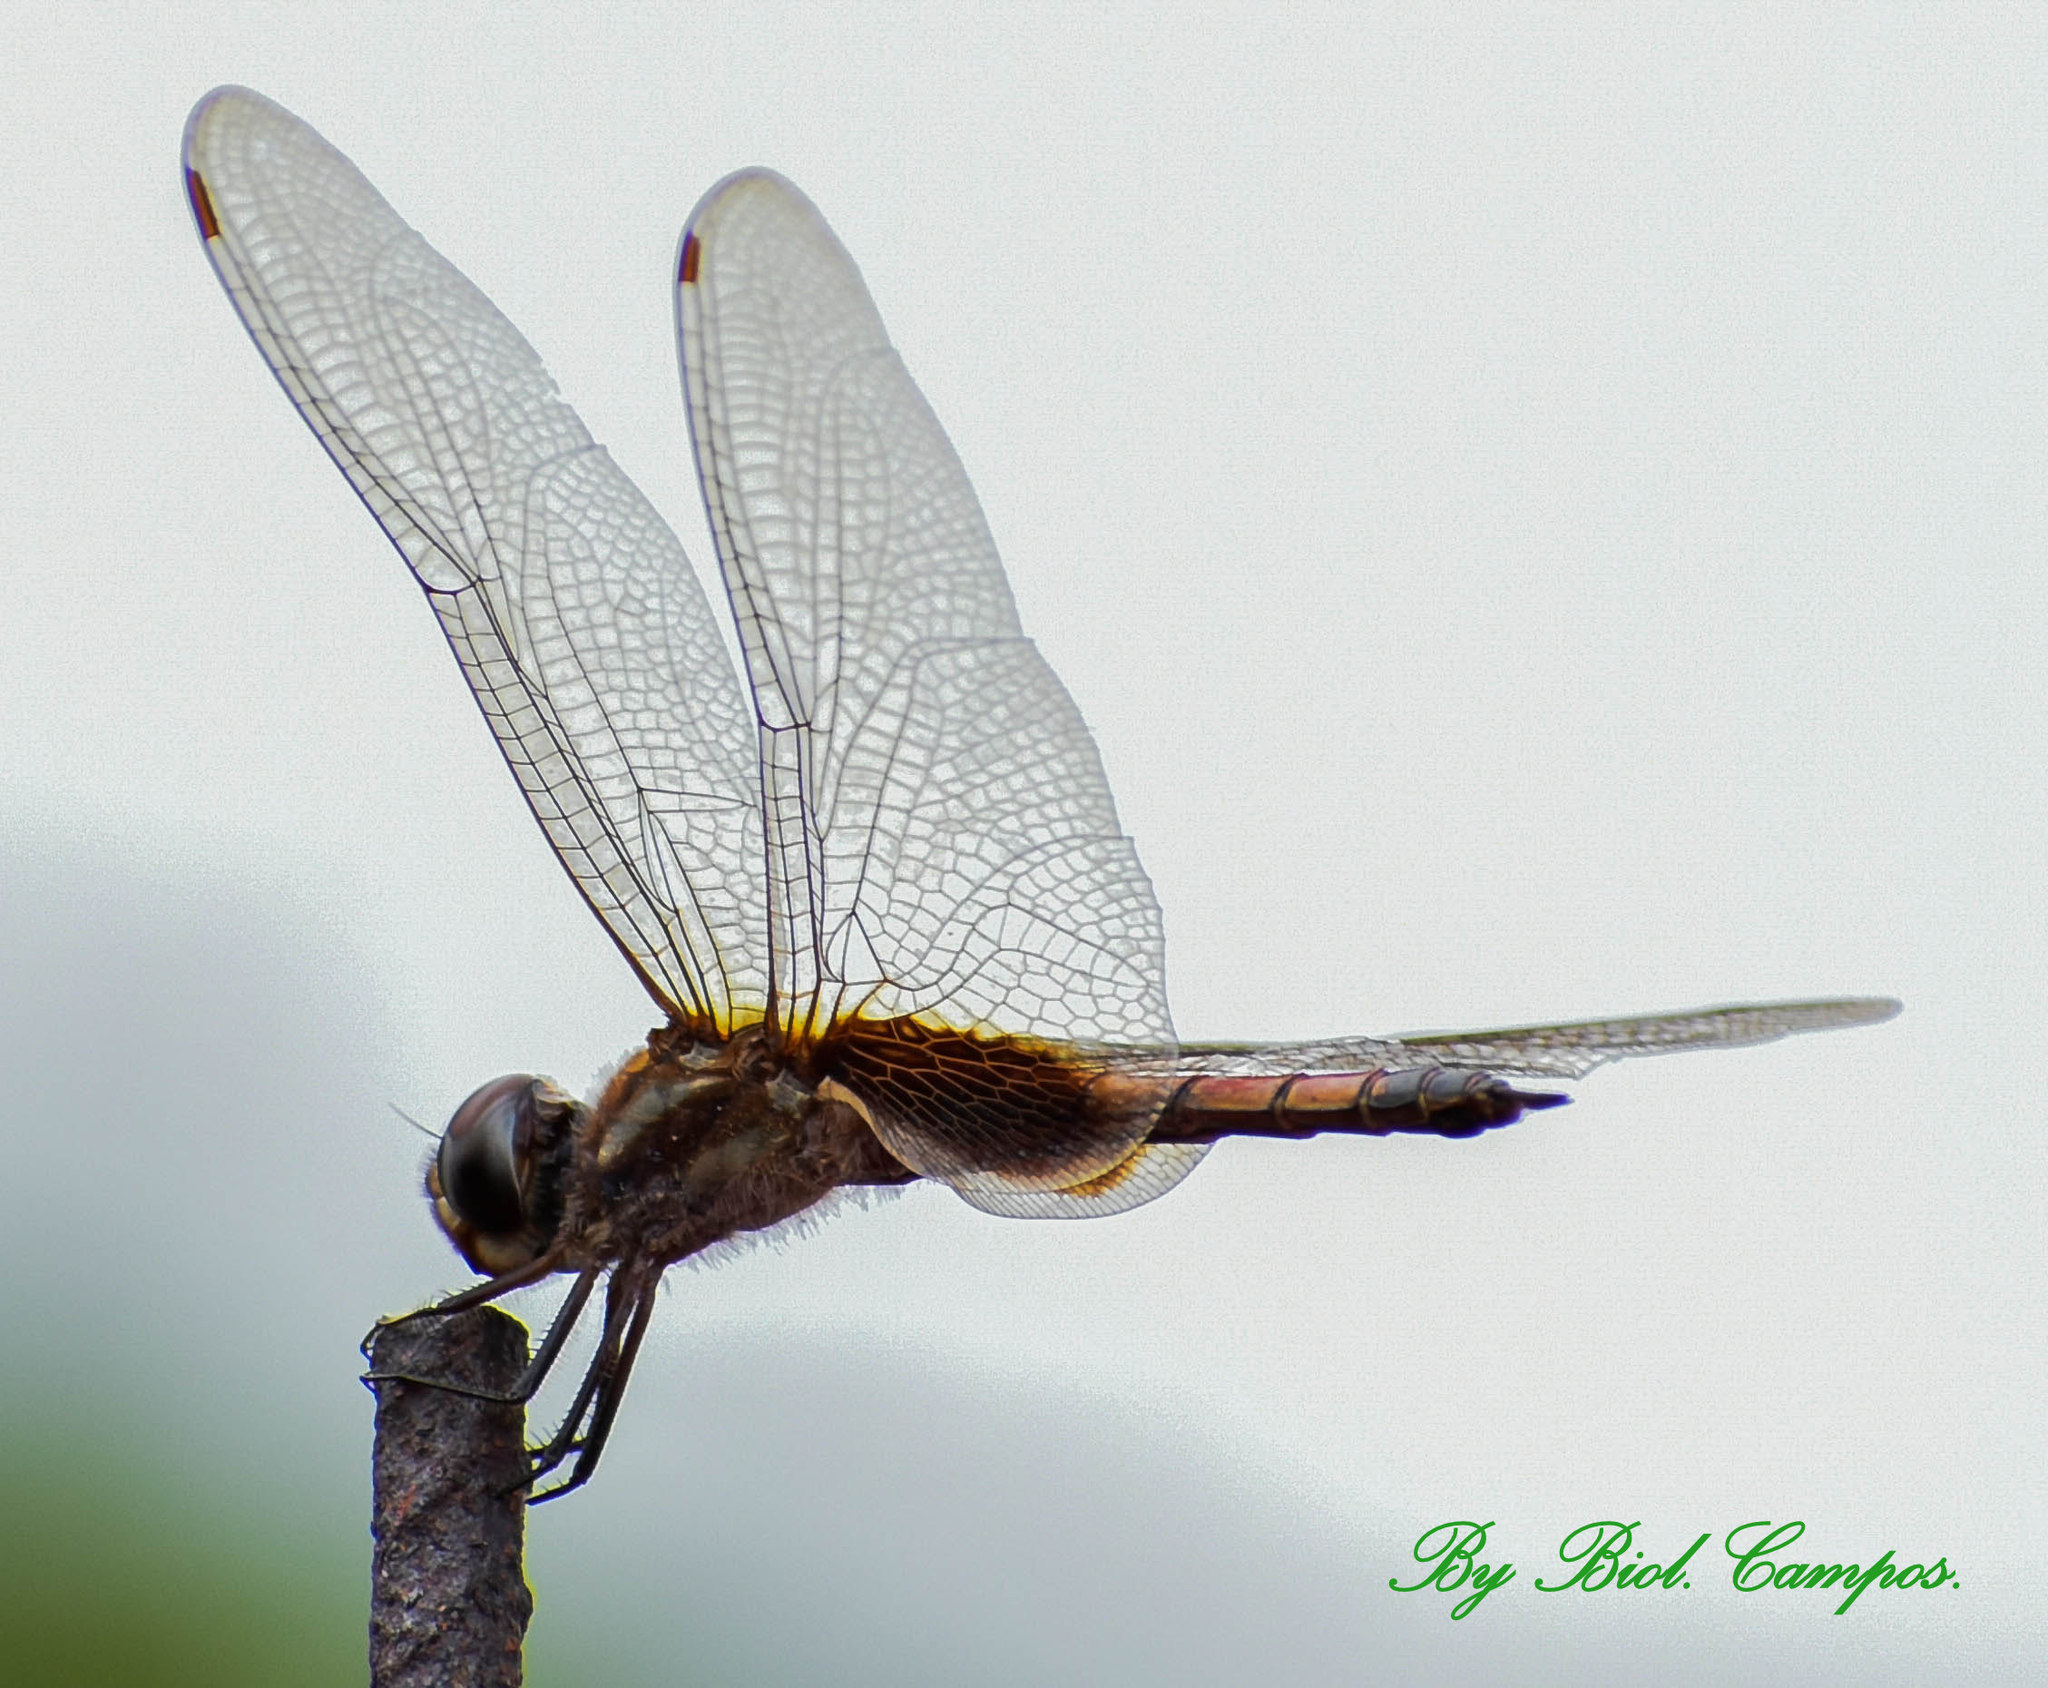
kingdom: Animalia
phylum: Arthropoda
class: Insecta
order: Odonata
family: Libellulidae
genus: Tramea
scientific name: Tramea darwini
